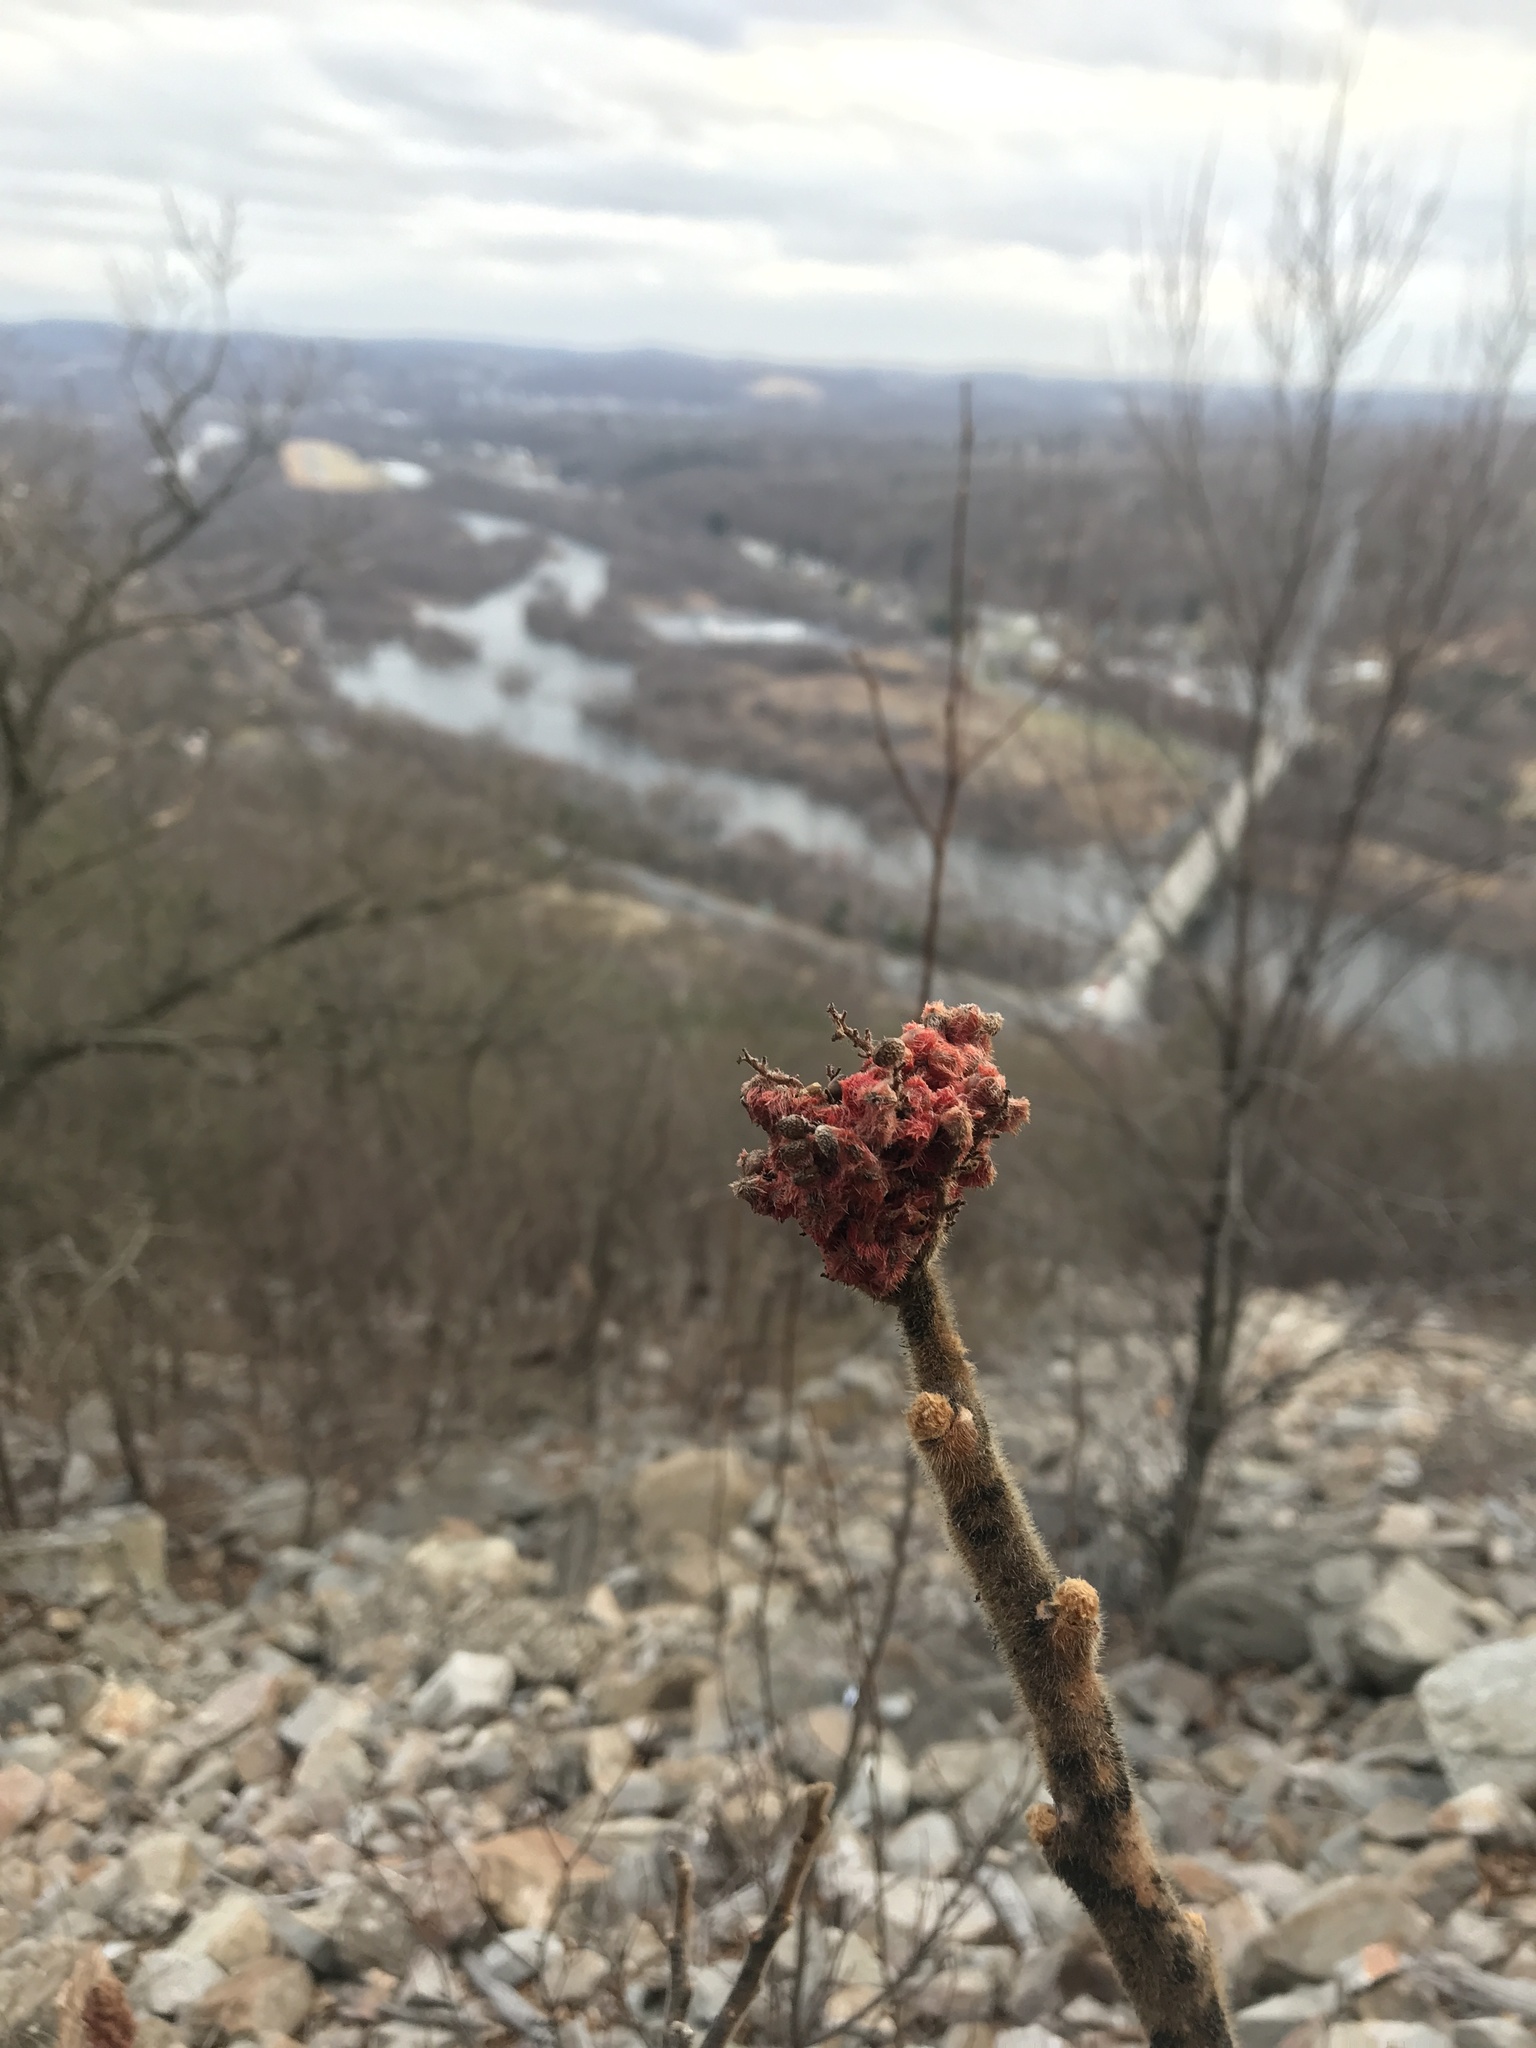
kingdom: Plantae
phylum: Tracheophyta
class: Magnoliopsida
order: Sapindales
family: Anacardiaceae
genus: Rhus
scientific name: Rhus typhina
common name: Staghorn sumac
